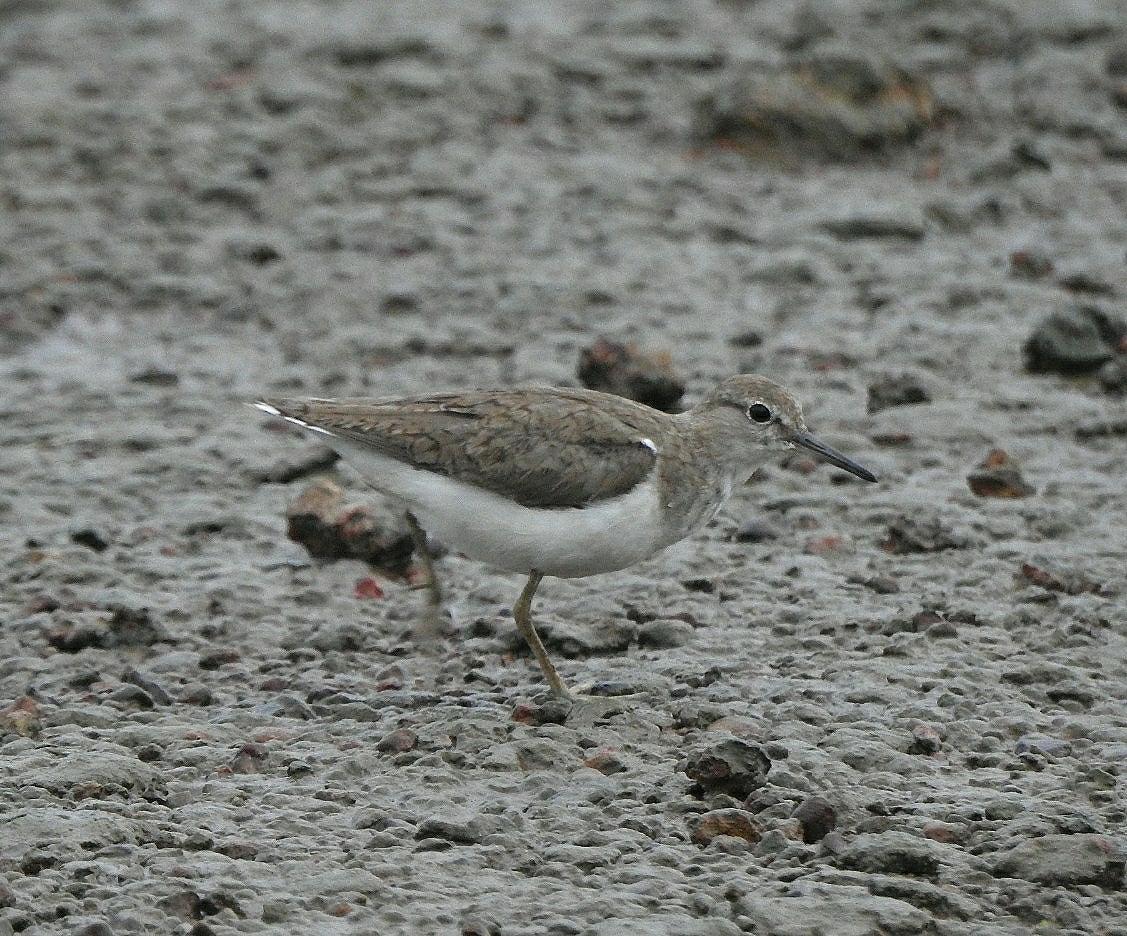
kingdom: Animalia
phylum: Chordata
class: Aves
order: Charadriiformes
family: Scolopacidae
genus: Actitis
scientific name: Actitis hypoleucos
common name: Common sandpiper
